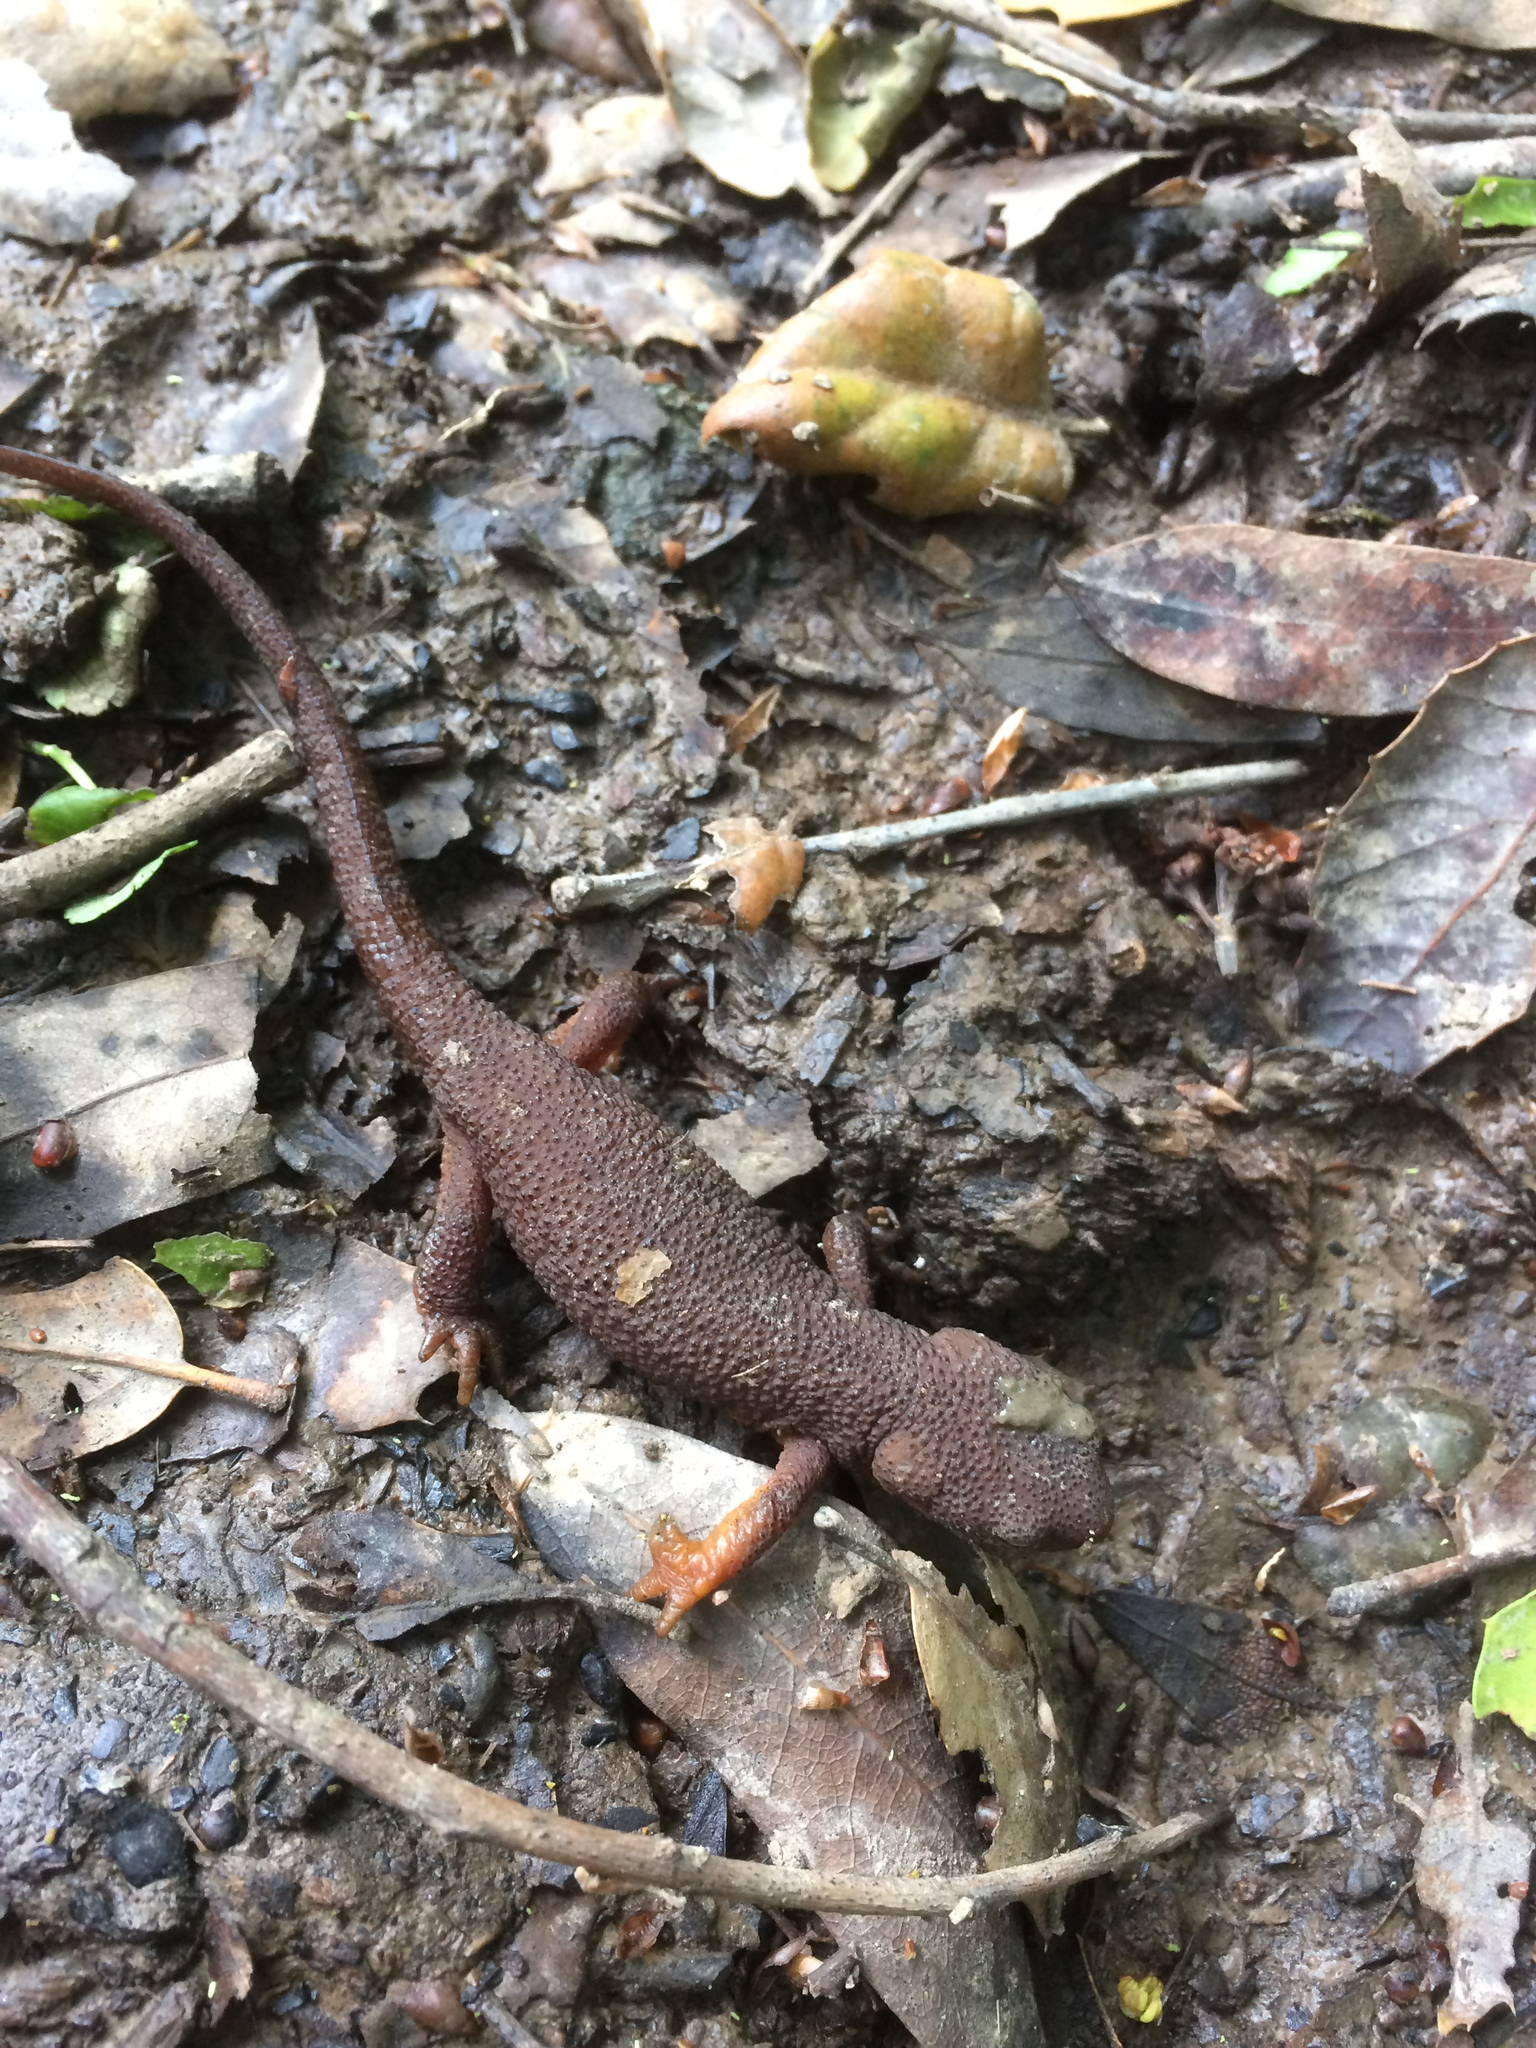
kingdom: Animalia
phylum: Chordata
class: Amphibia
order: Caudata
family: Salamandridae
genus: Taricha
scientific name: Taricha granulosa
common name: Roughskin newt
